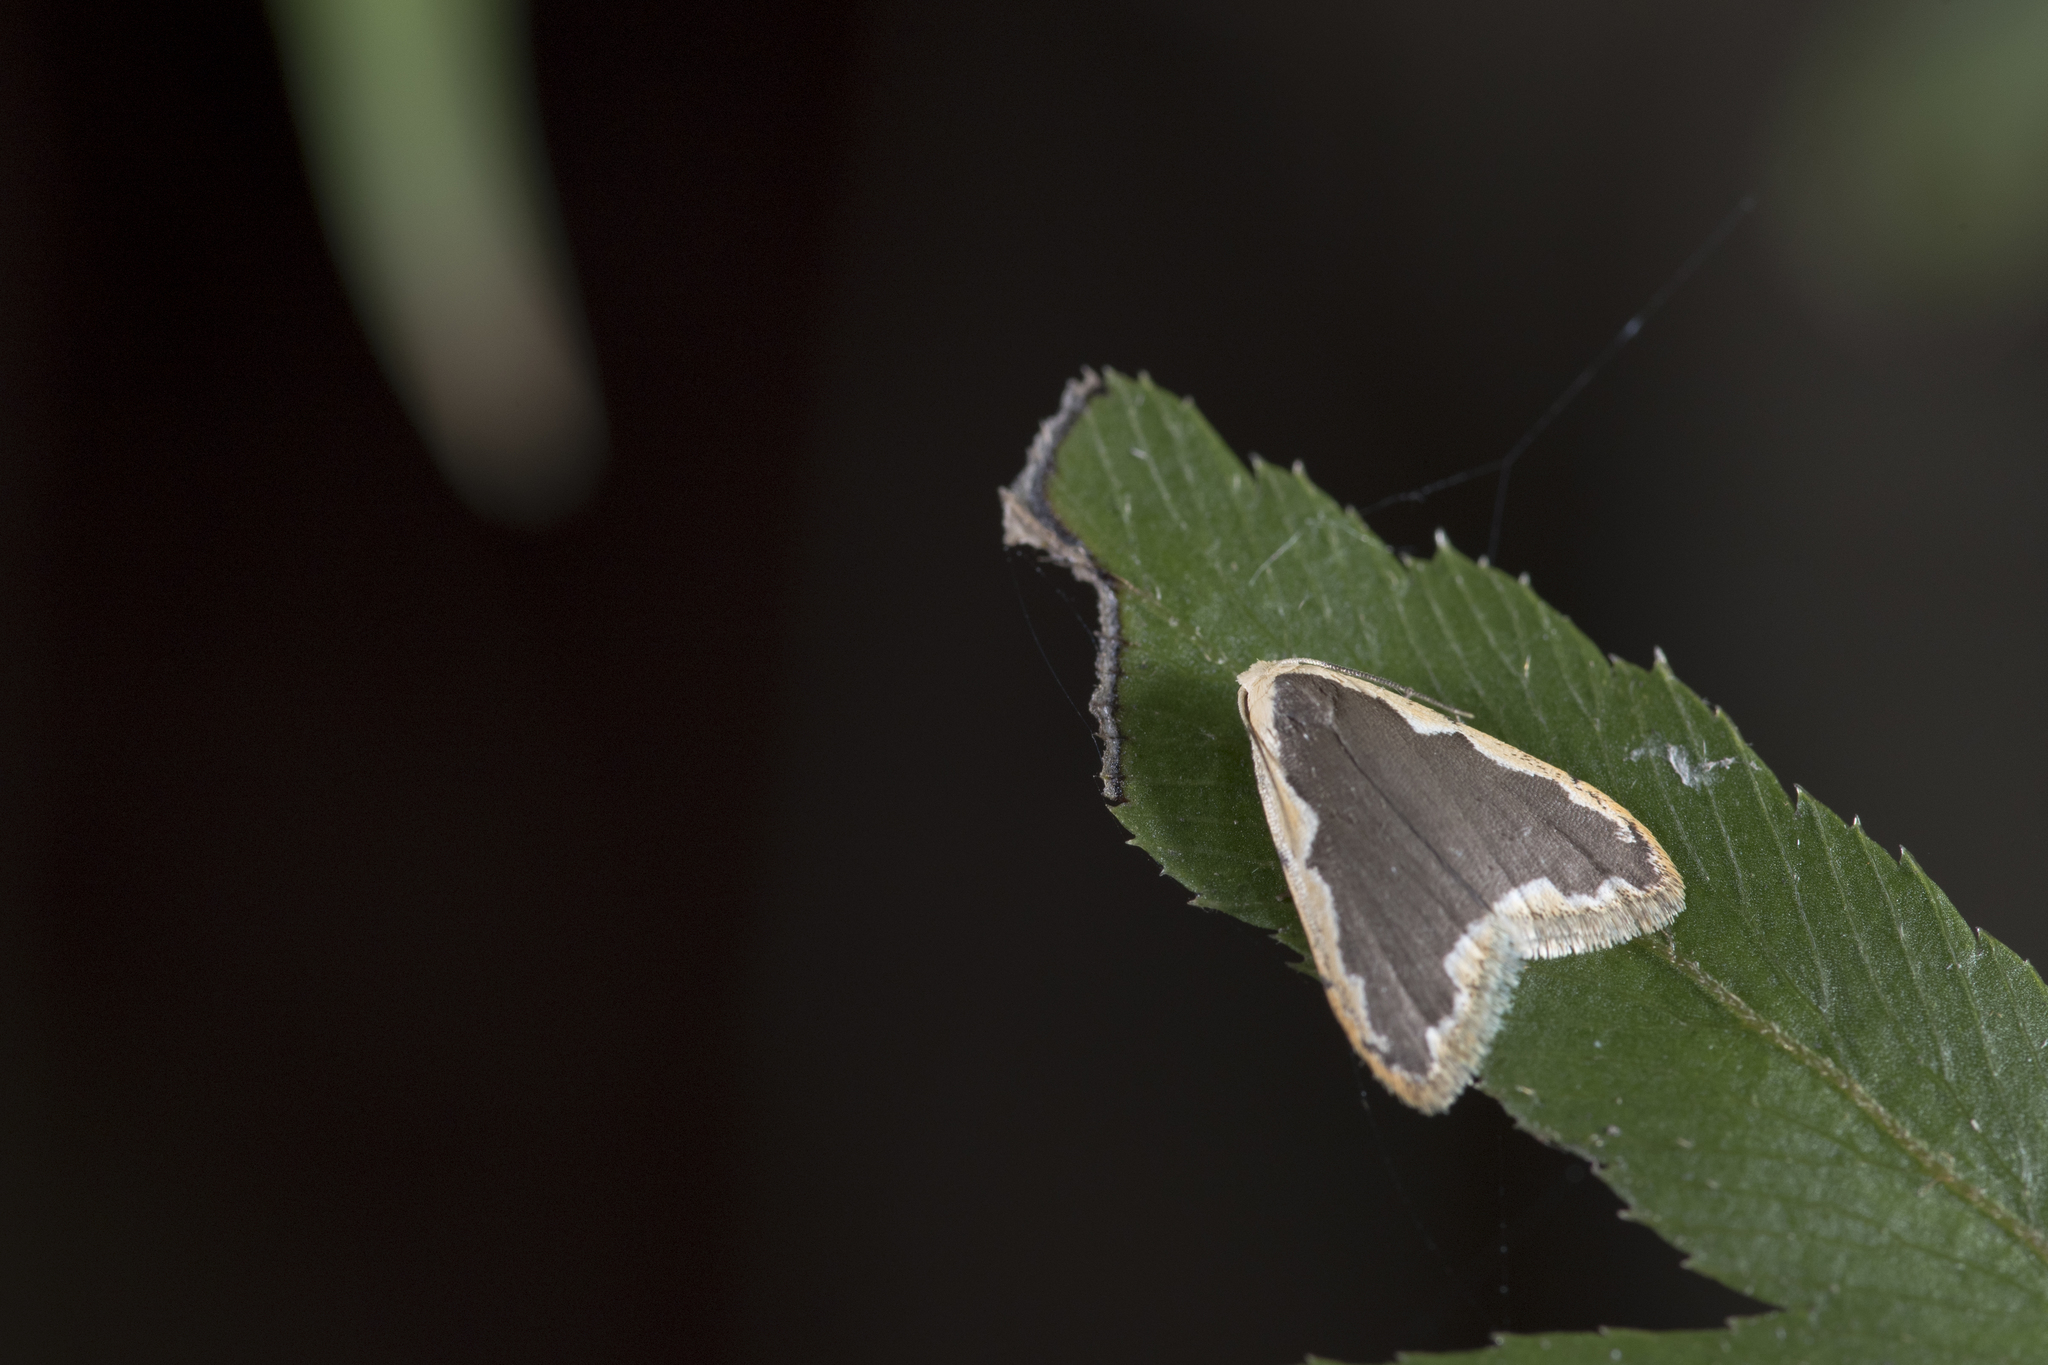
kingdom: Animalia
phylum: Arthropoda
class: Insecta
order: Lepidoptera
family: Erebidae
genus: Diduga
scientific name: Diduga taiwana
